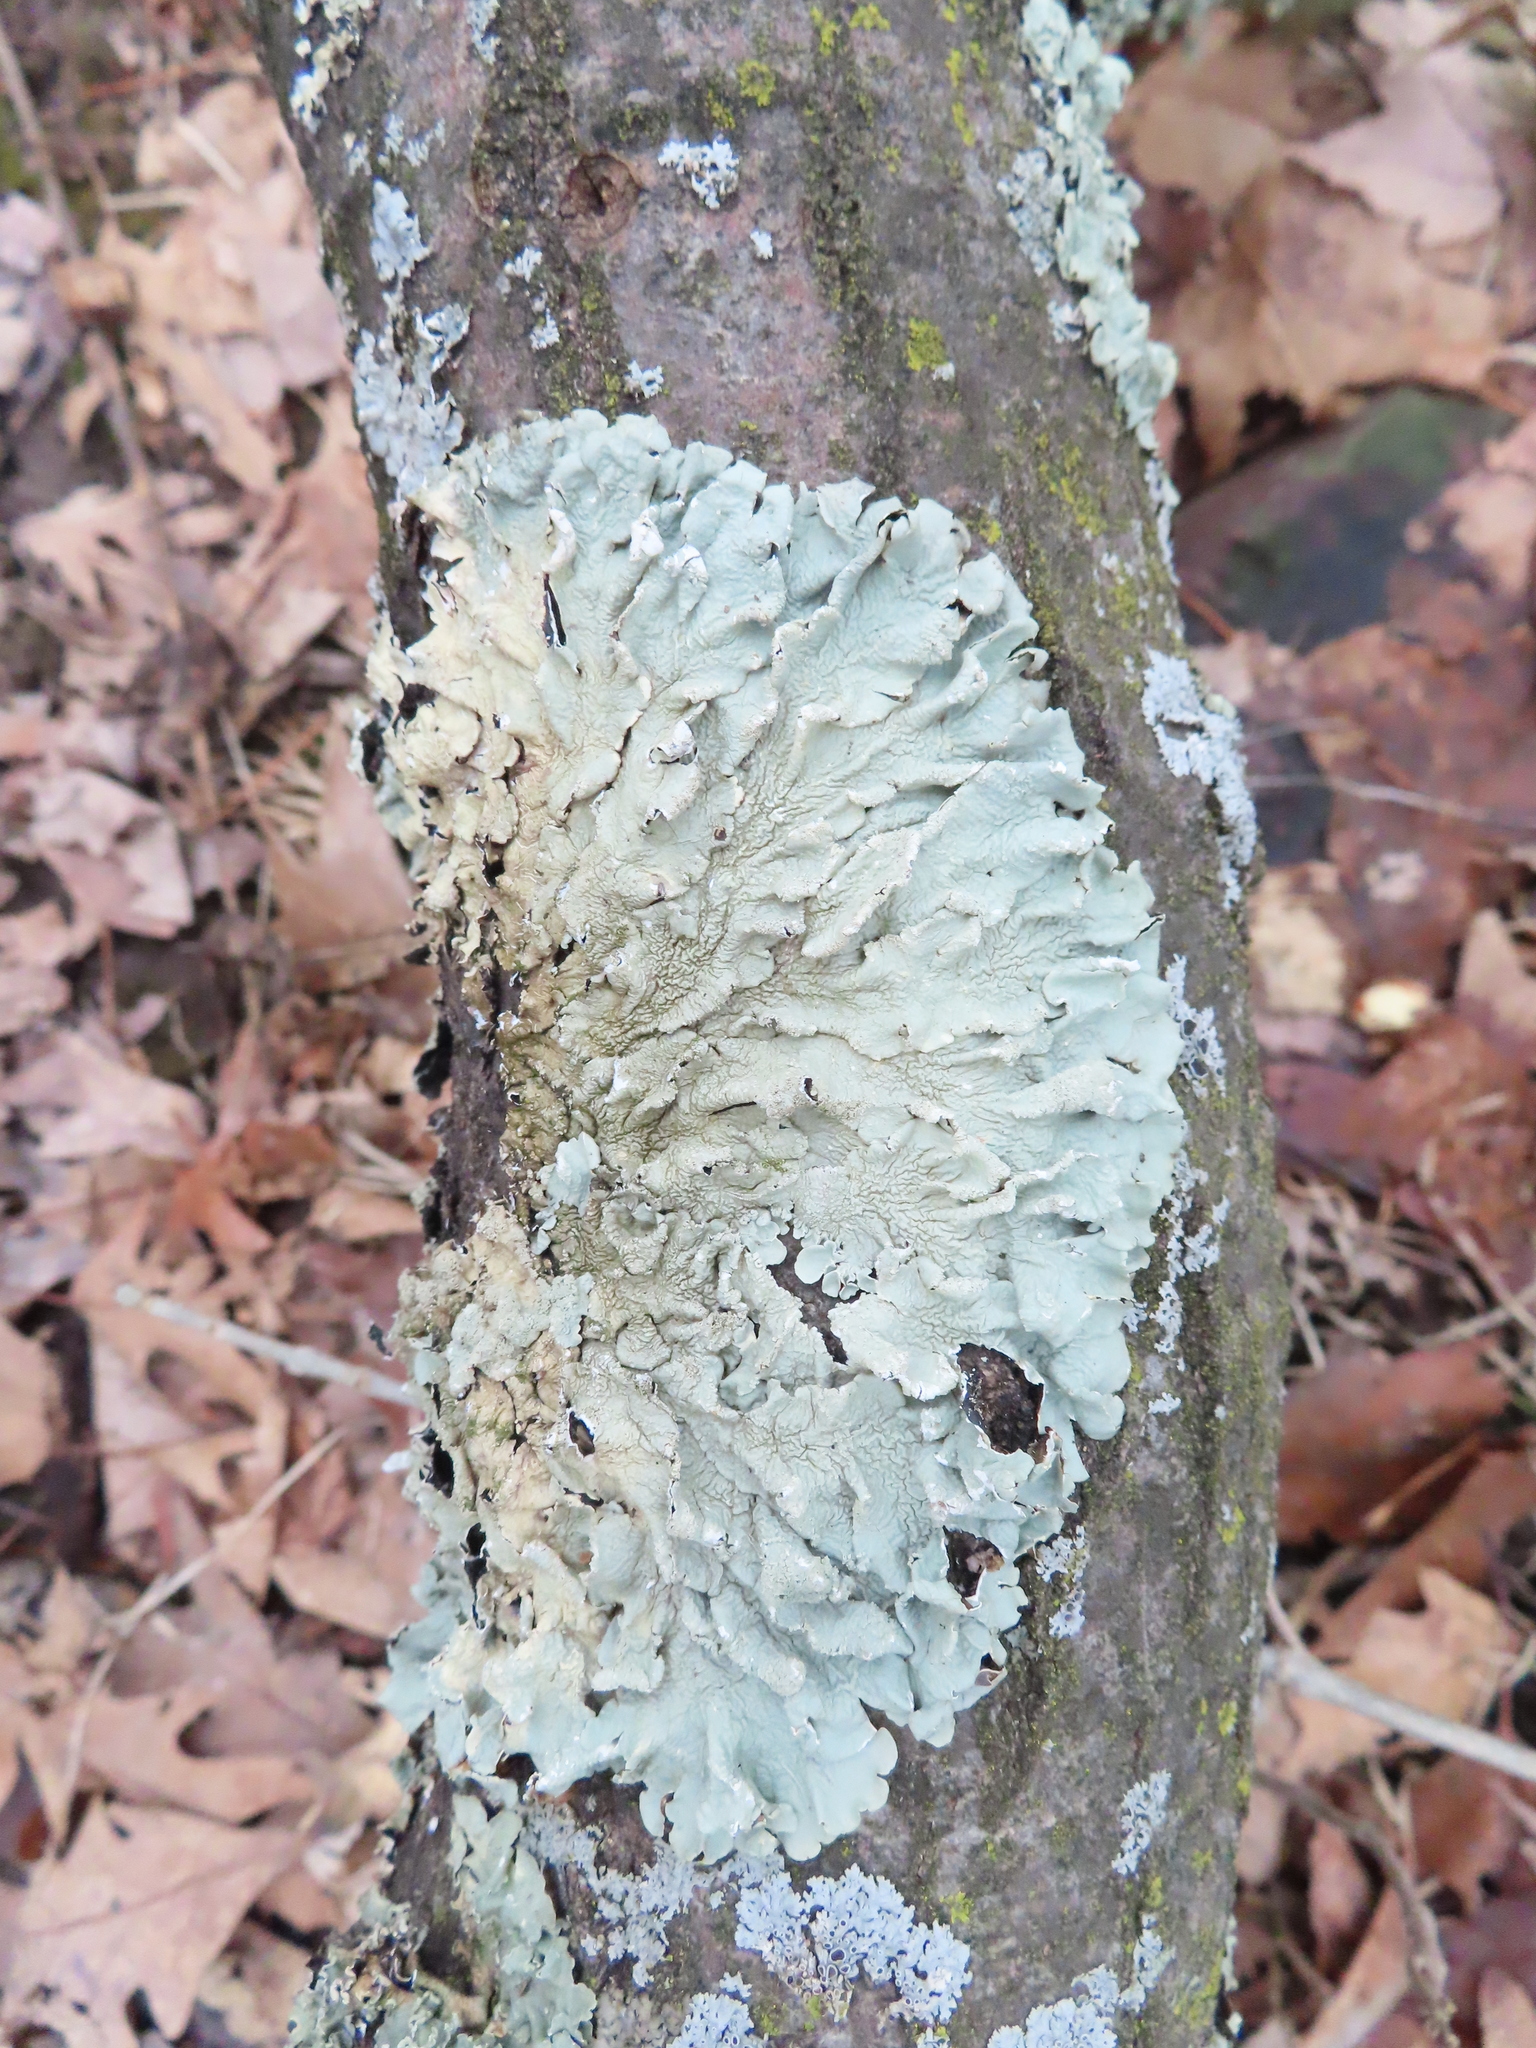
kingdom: Fungi
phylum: Ascomycota
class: Lecanoromycetes
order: Lecanorales
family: Parmeliaceae
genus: Flavoparmelia
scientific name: Flavoparmelia caperata
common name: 40-mile per hour lichen
